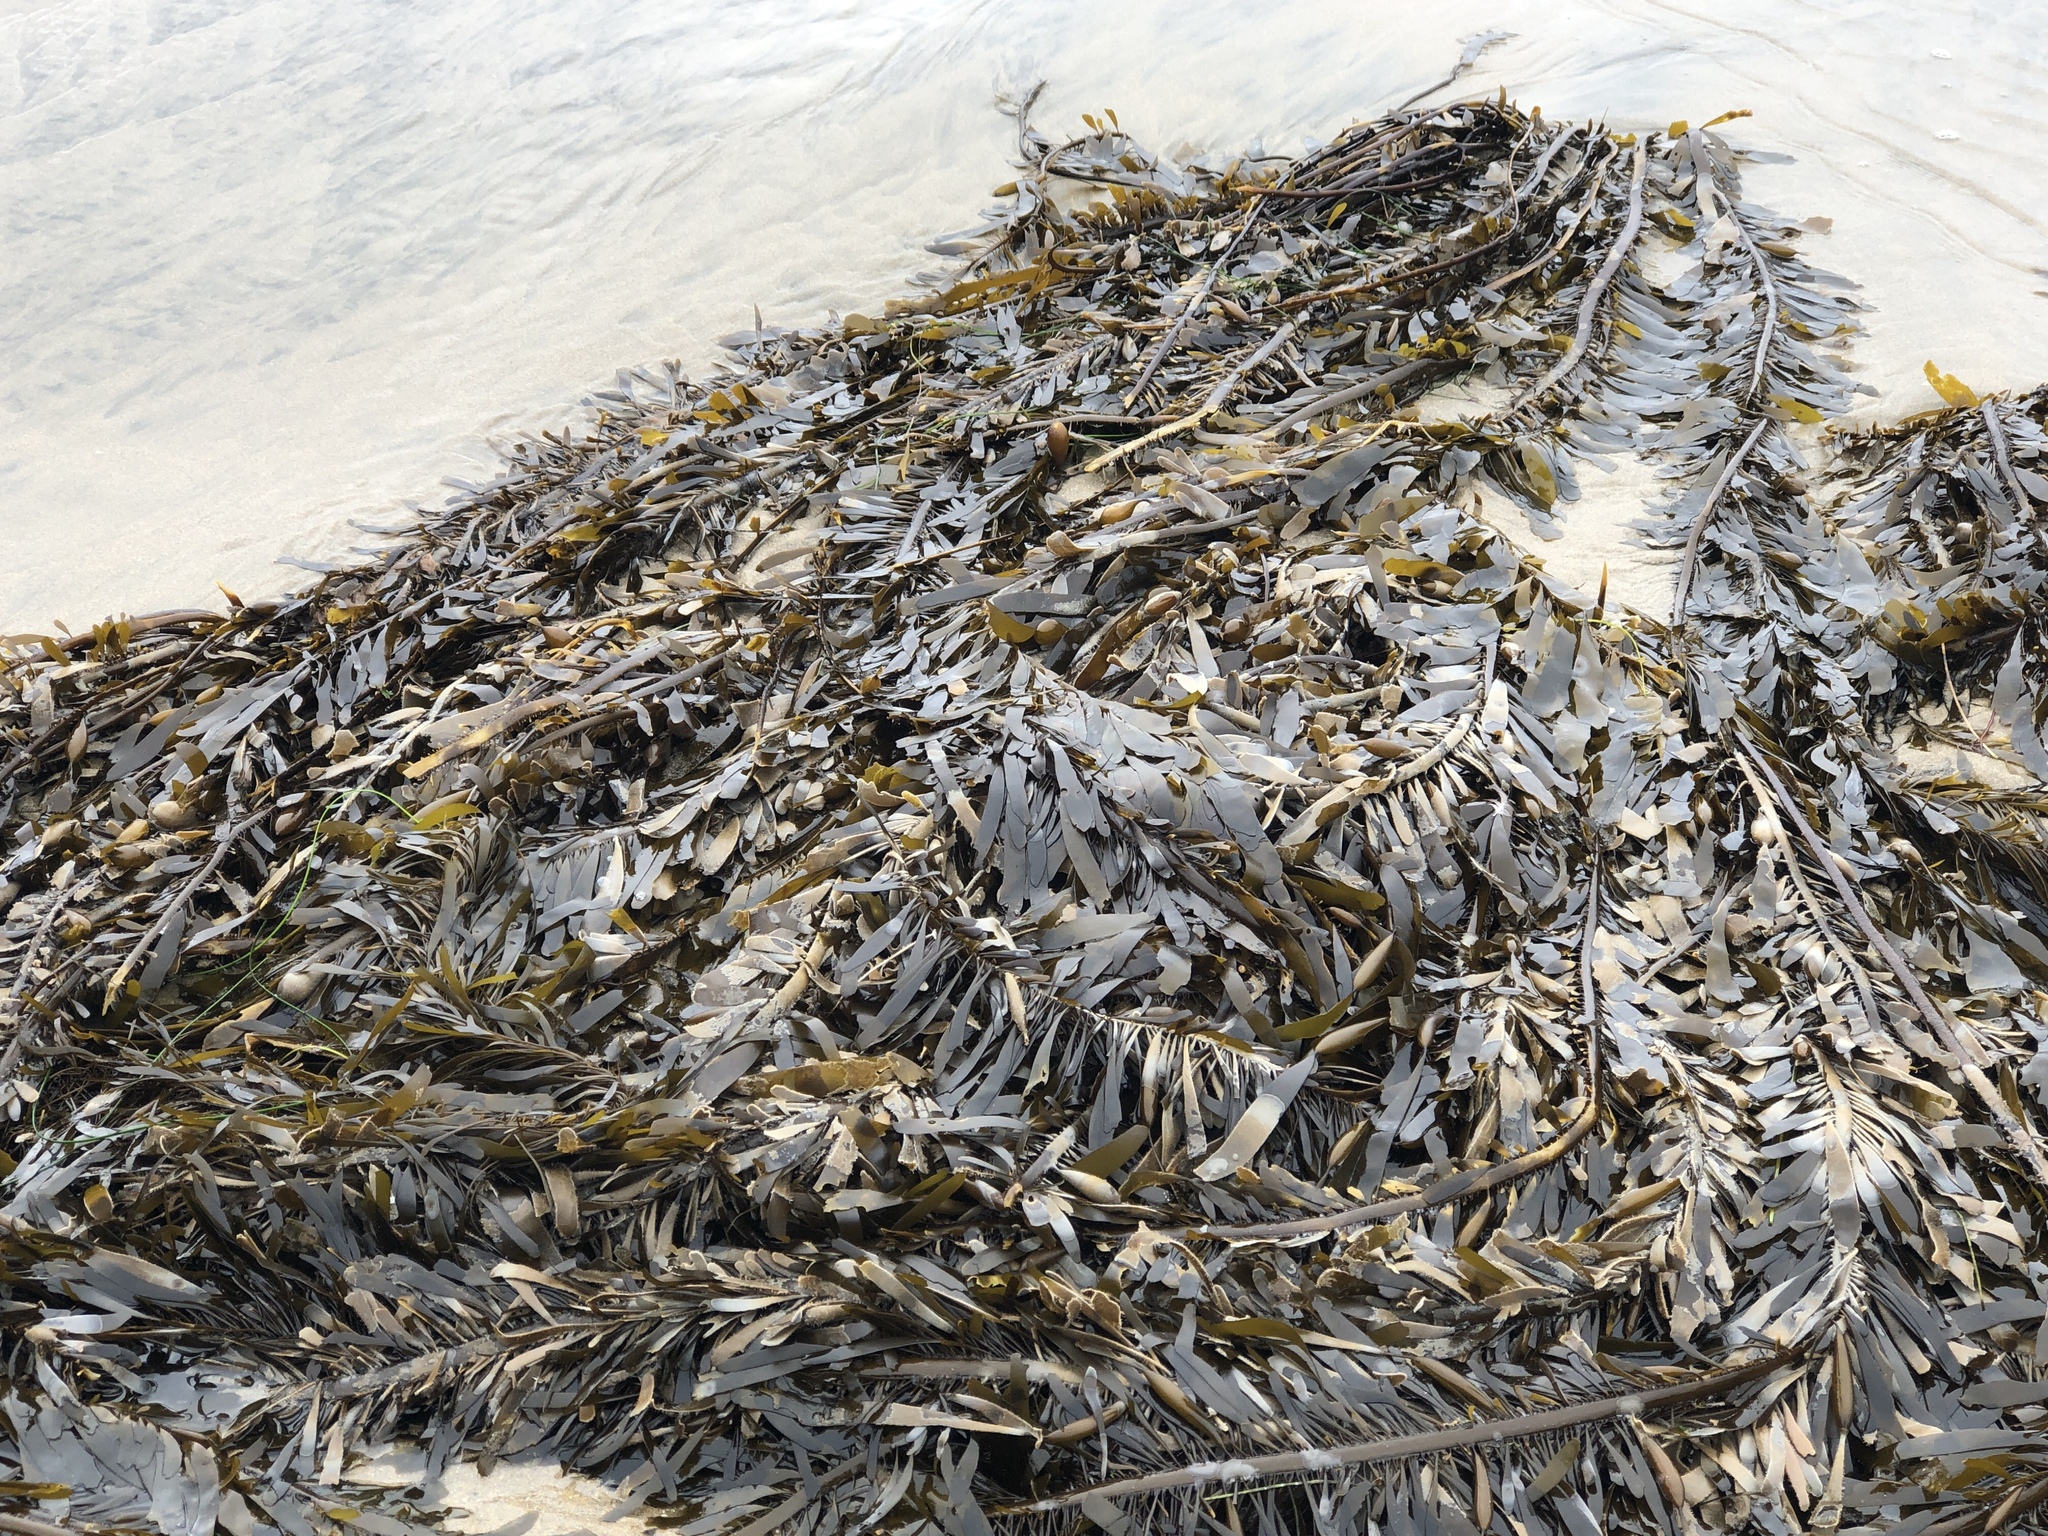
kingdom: Chromista
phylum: Ochrophyta
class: Phaeophyceae
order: Laminariales
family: Lessoniaceae
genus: Egregia
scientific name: Egregia menziesii
